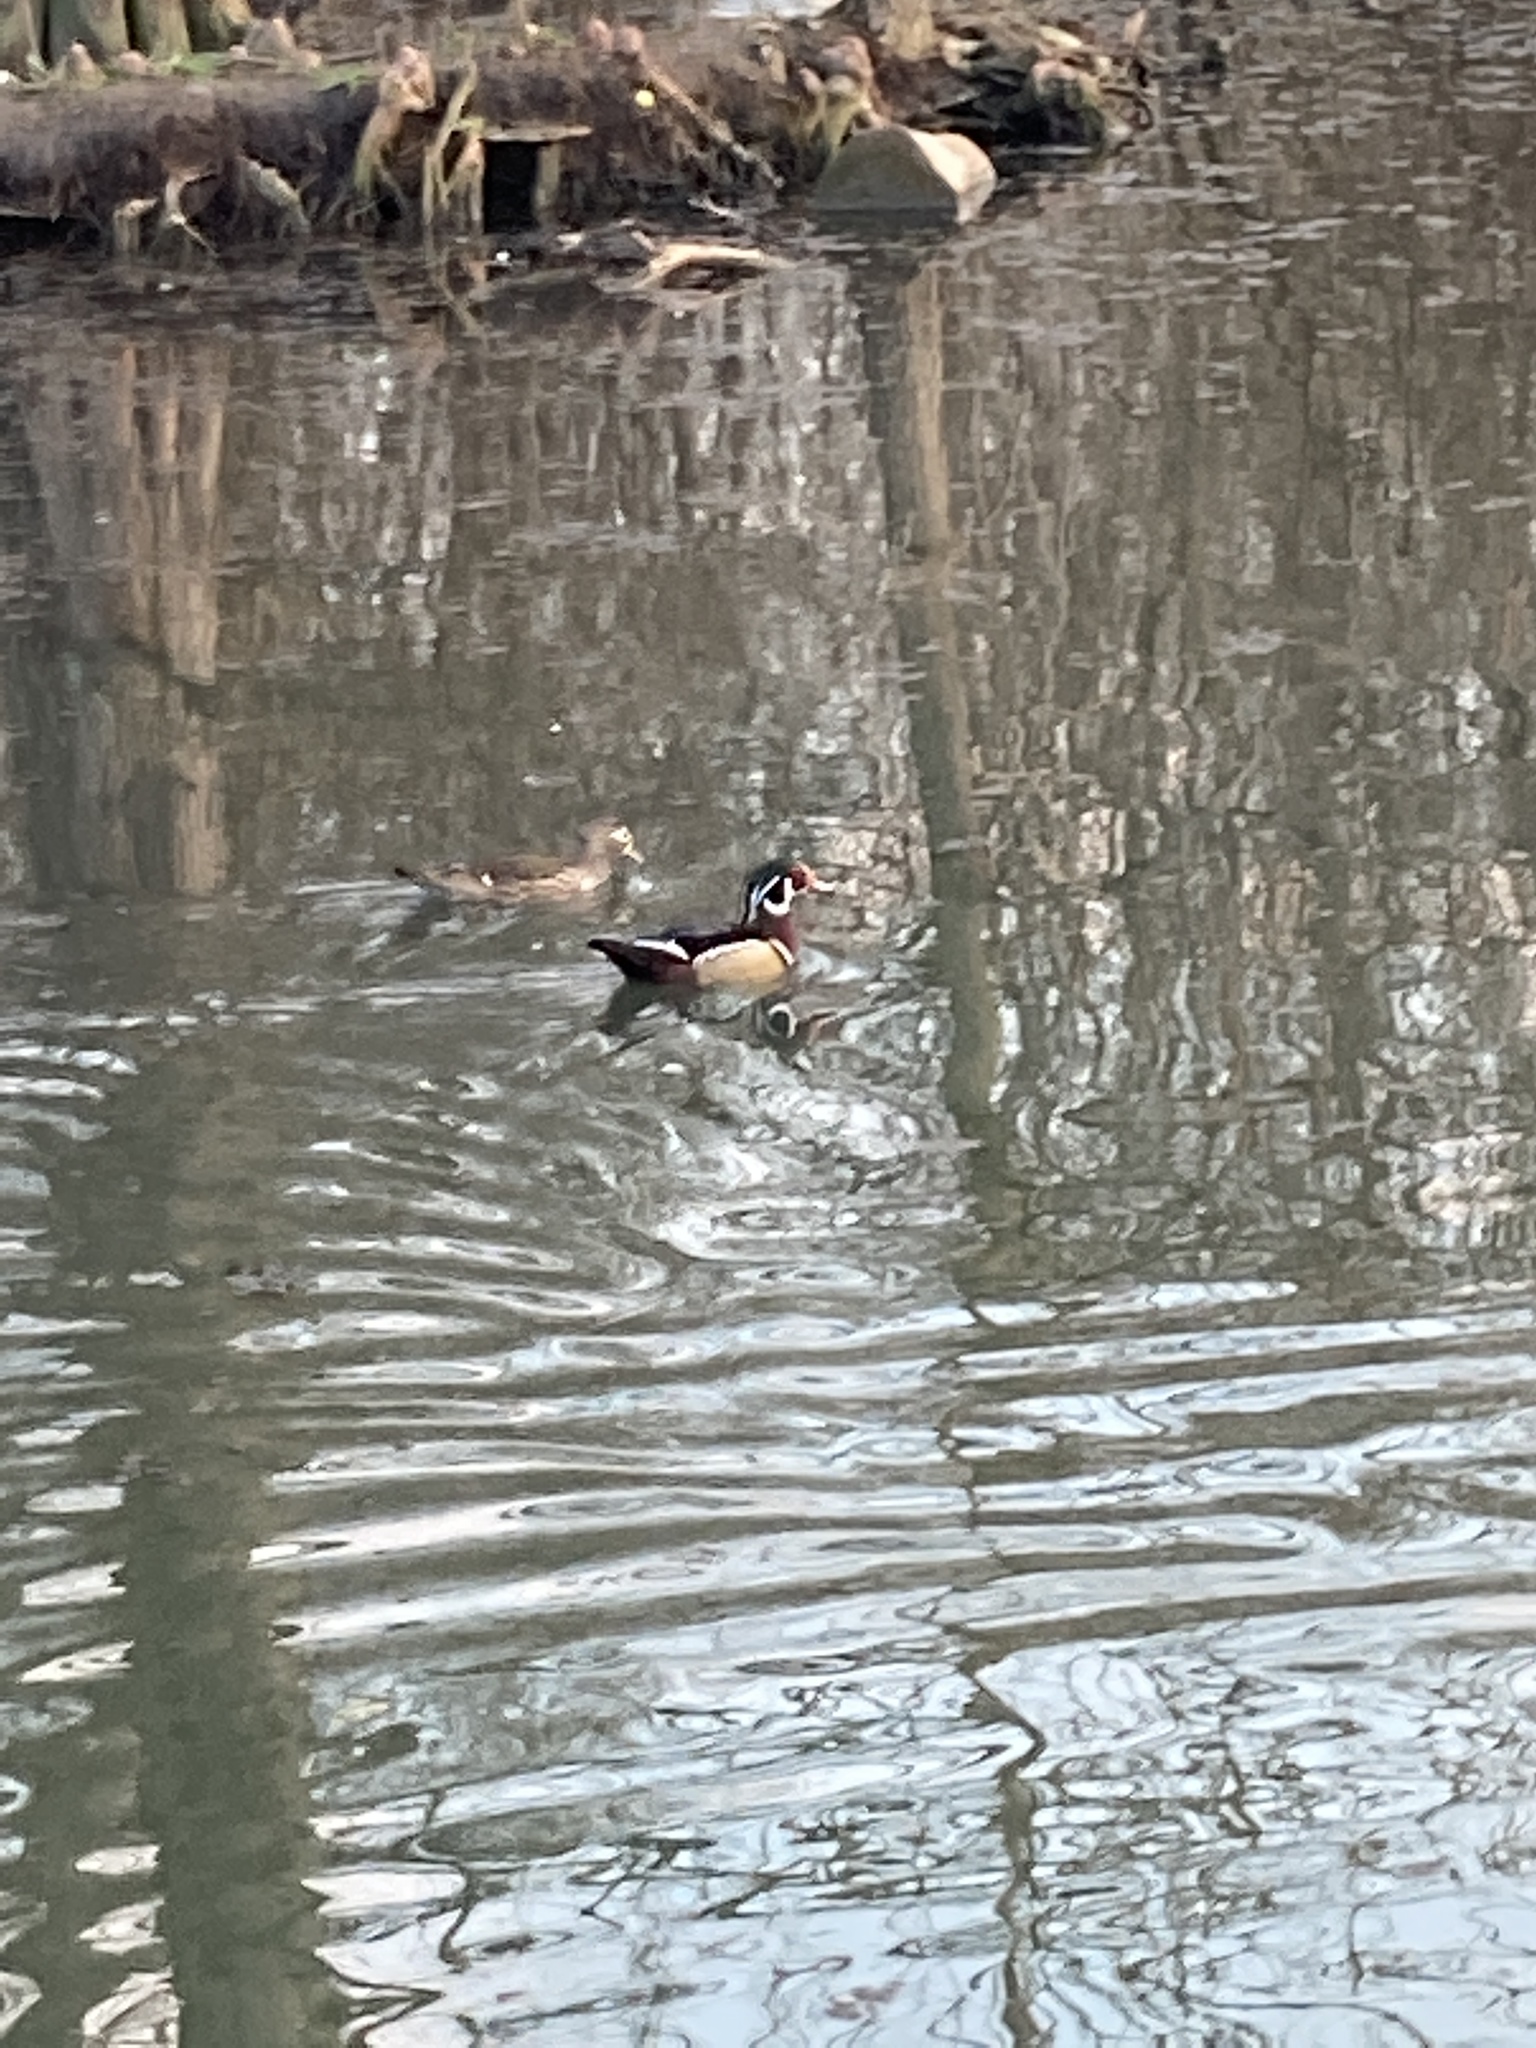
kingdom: Animalia
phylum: Chordata
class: Aves
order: Anseriformes
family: Anatidae
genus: Aix
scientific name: Aix sponsa
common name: Wood duck
